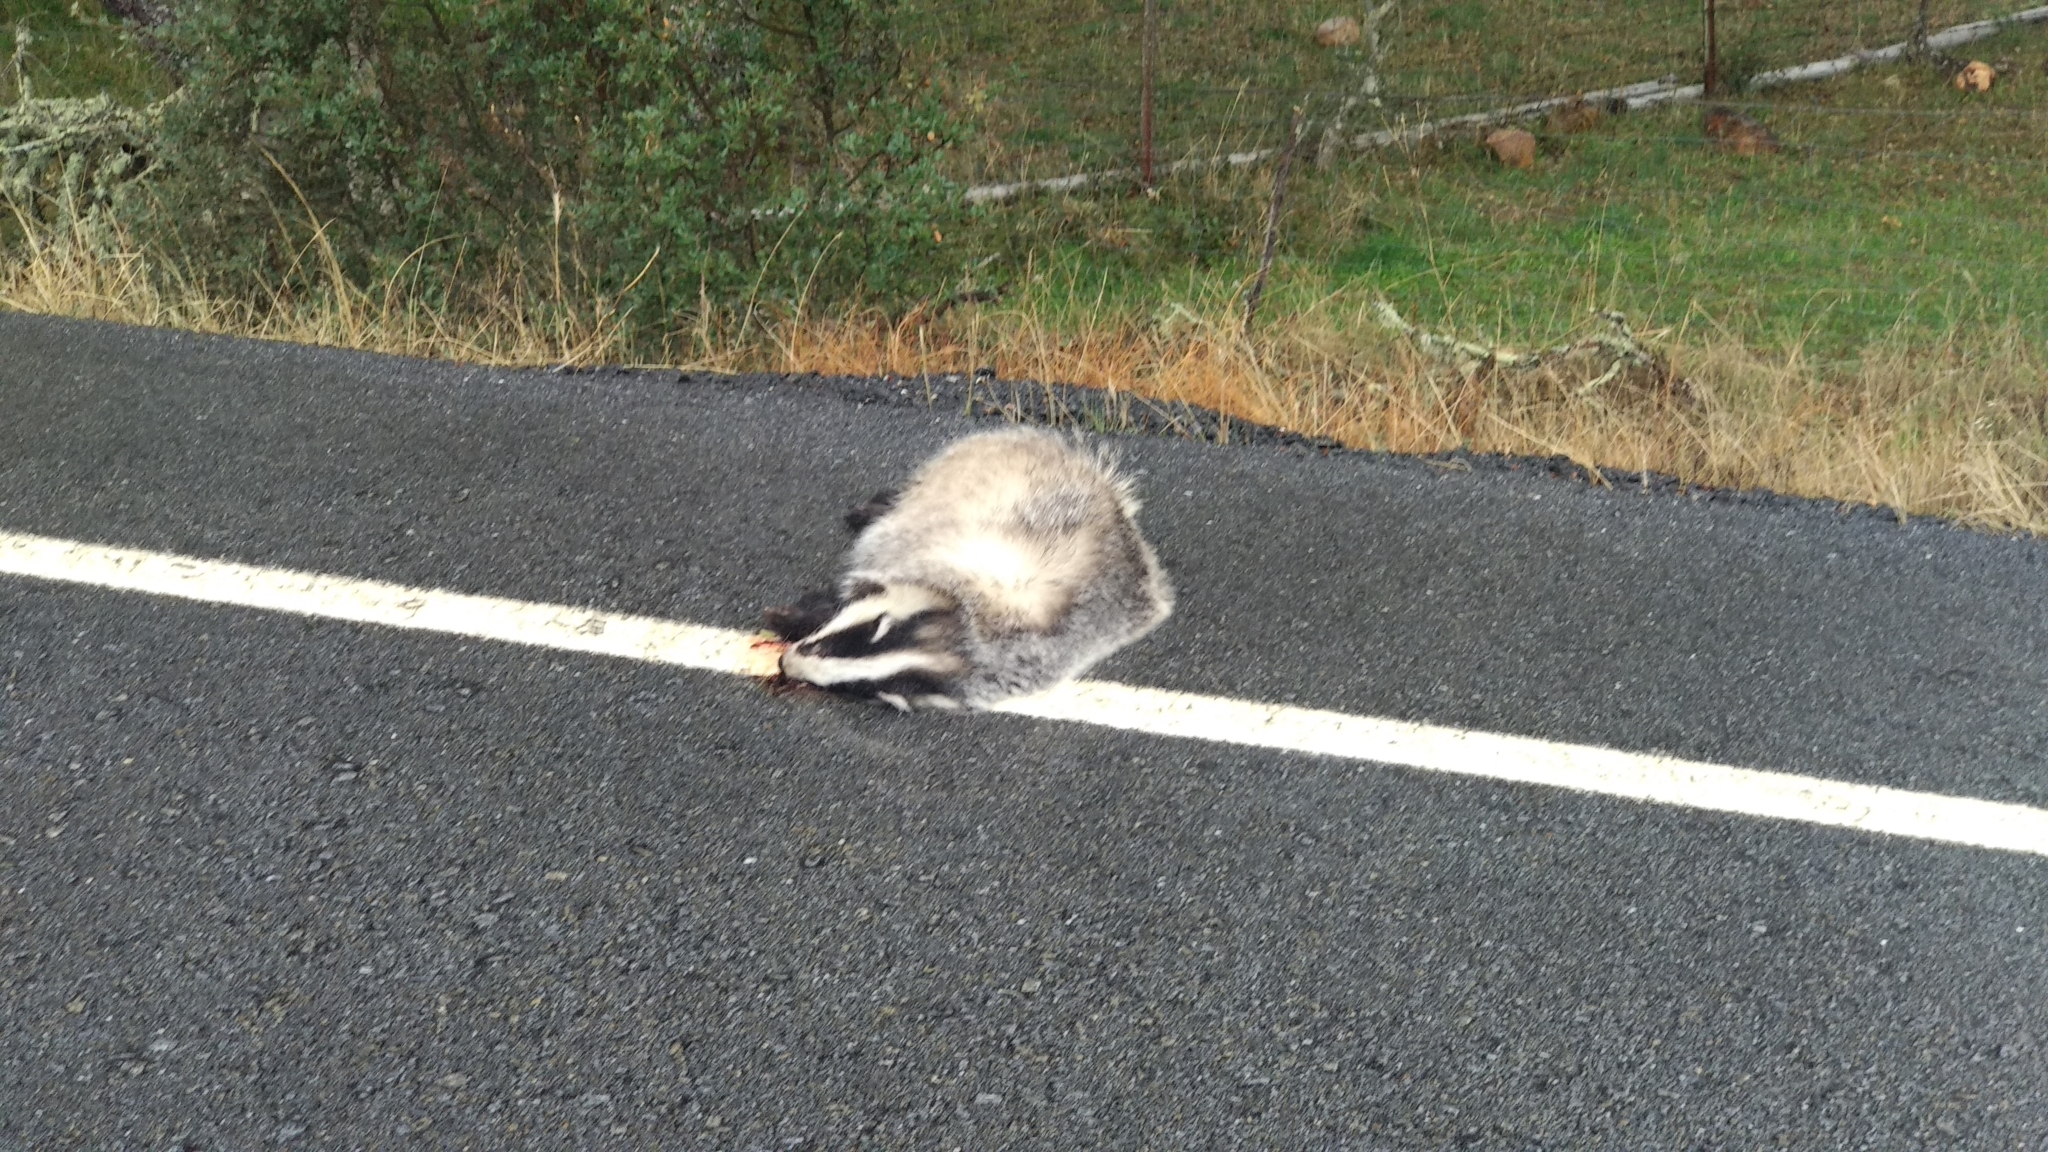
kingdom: Animalia
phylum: Chordata
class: Mammalia
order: Carnivora
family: Mustelidae
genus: Meles
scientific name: Meles meles
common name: Eurasian badger
